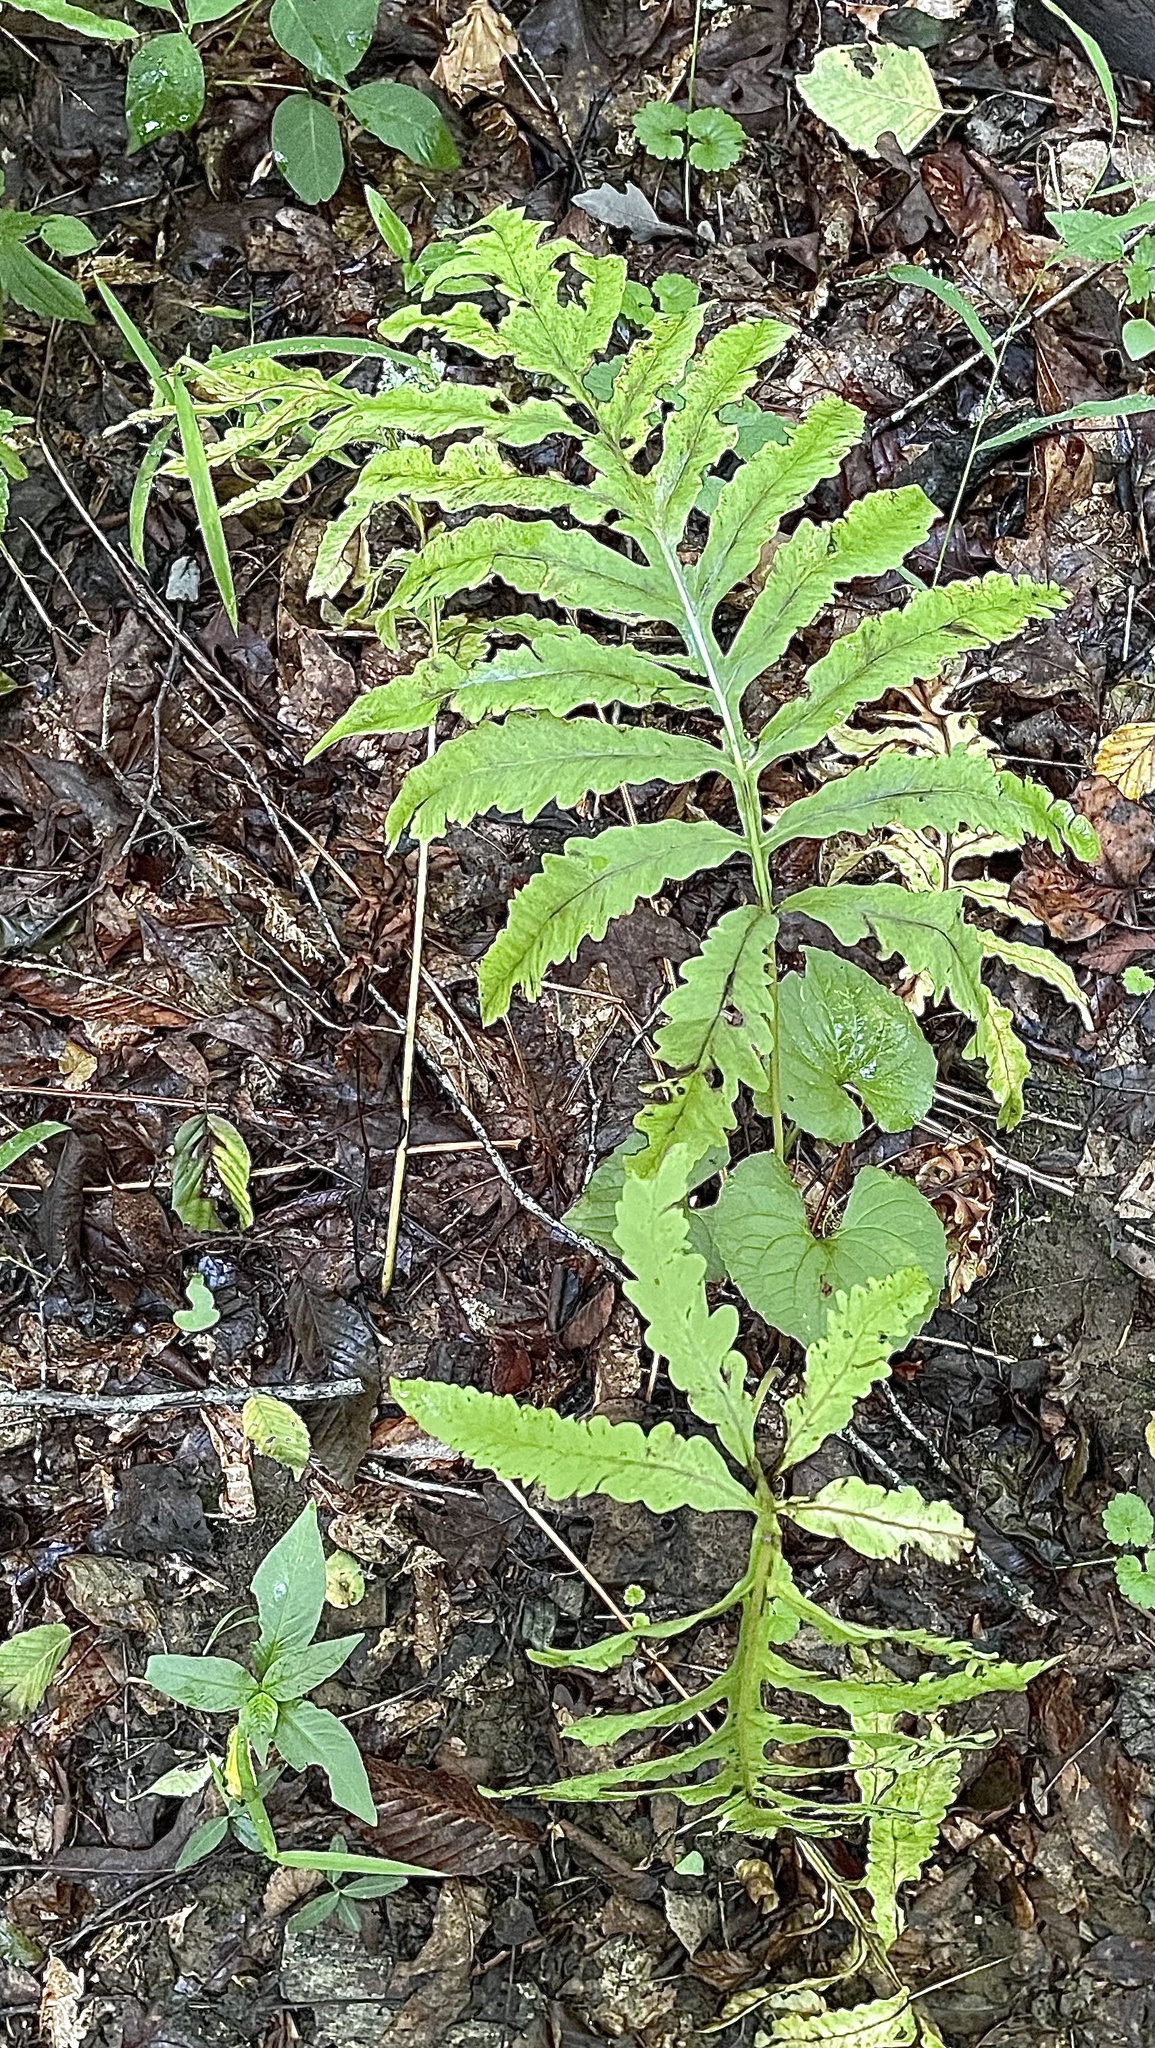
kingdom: Plantae
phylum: Tracheophyta
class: Polypodiopsida
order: Polypodiales
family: Onocleaceae
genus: Onoclea
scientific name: Onoclea sensibilis
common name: Sensitive fern
